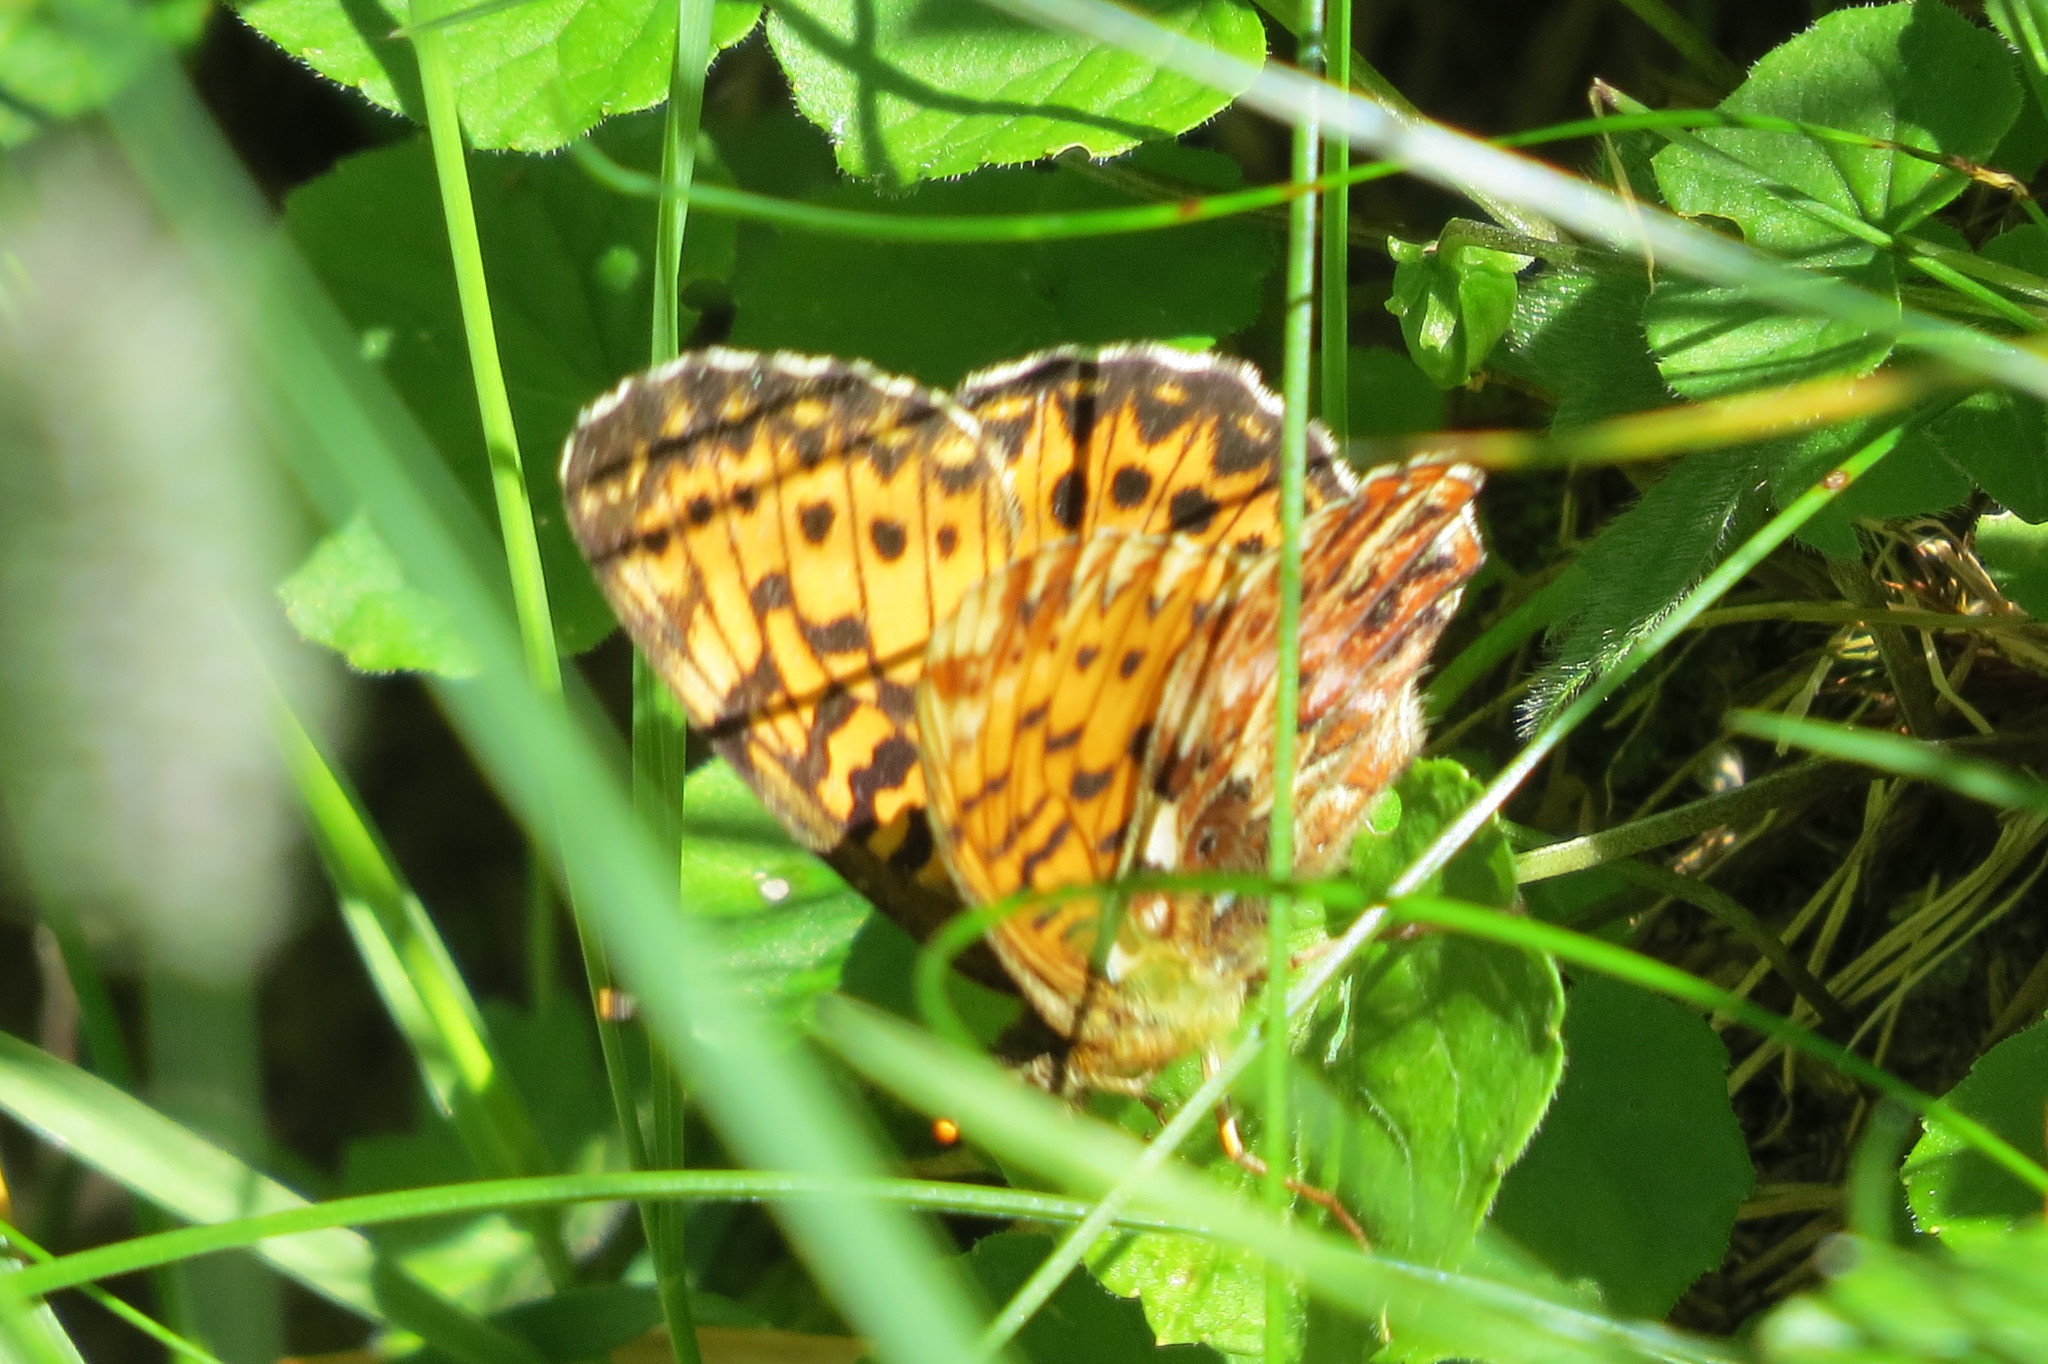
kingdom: Animalia
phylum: Arthropoda
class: Insecta
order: Lepidoptera
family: Nymphalidae
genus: Boloria
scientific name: Boloria titania
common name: Titania's fritillary
